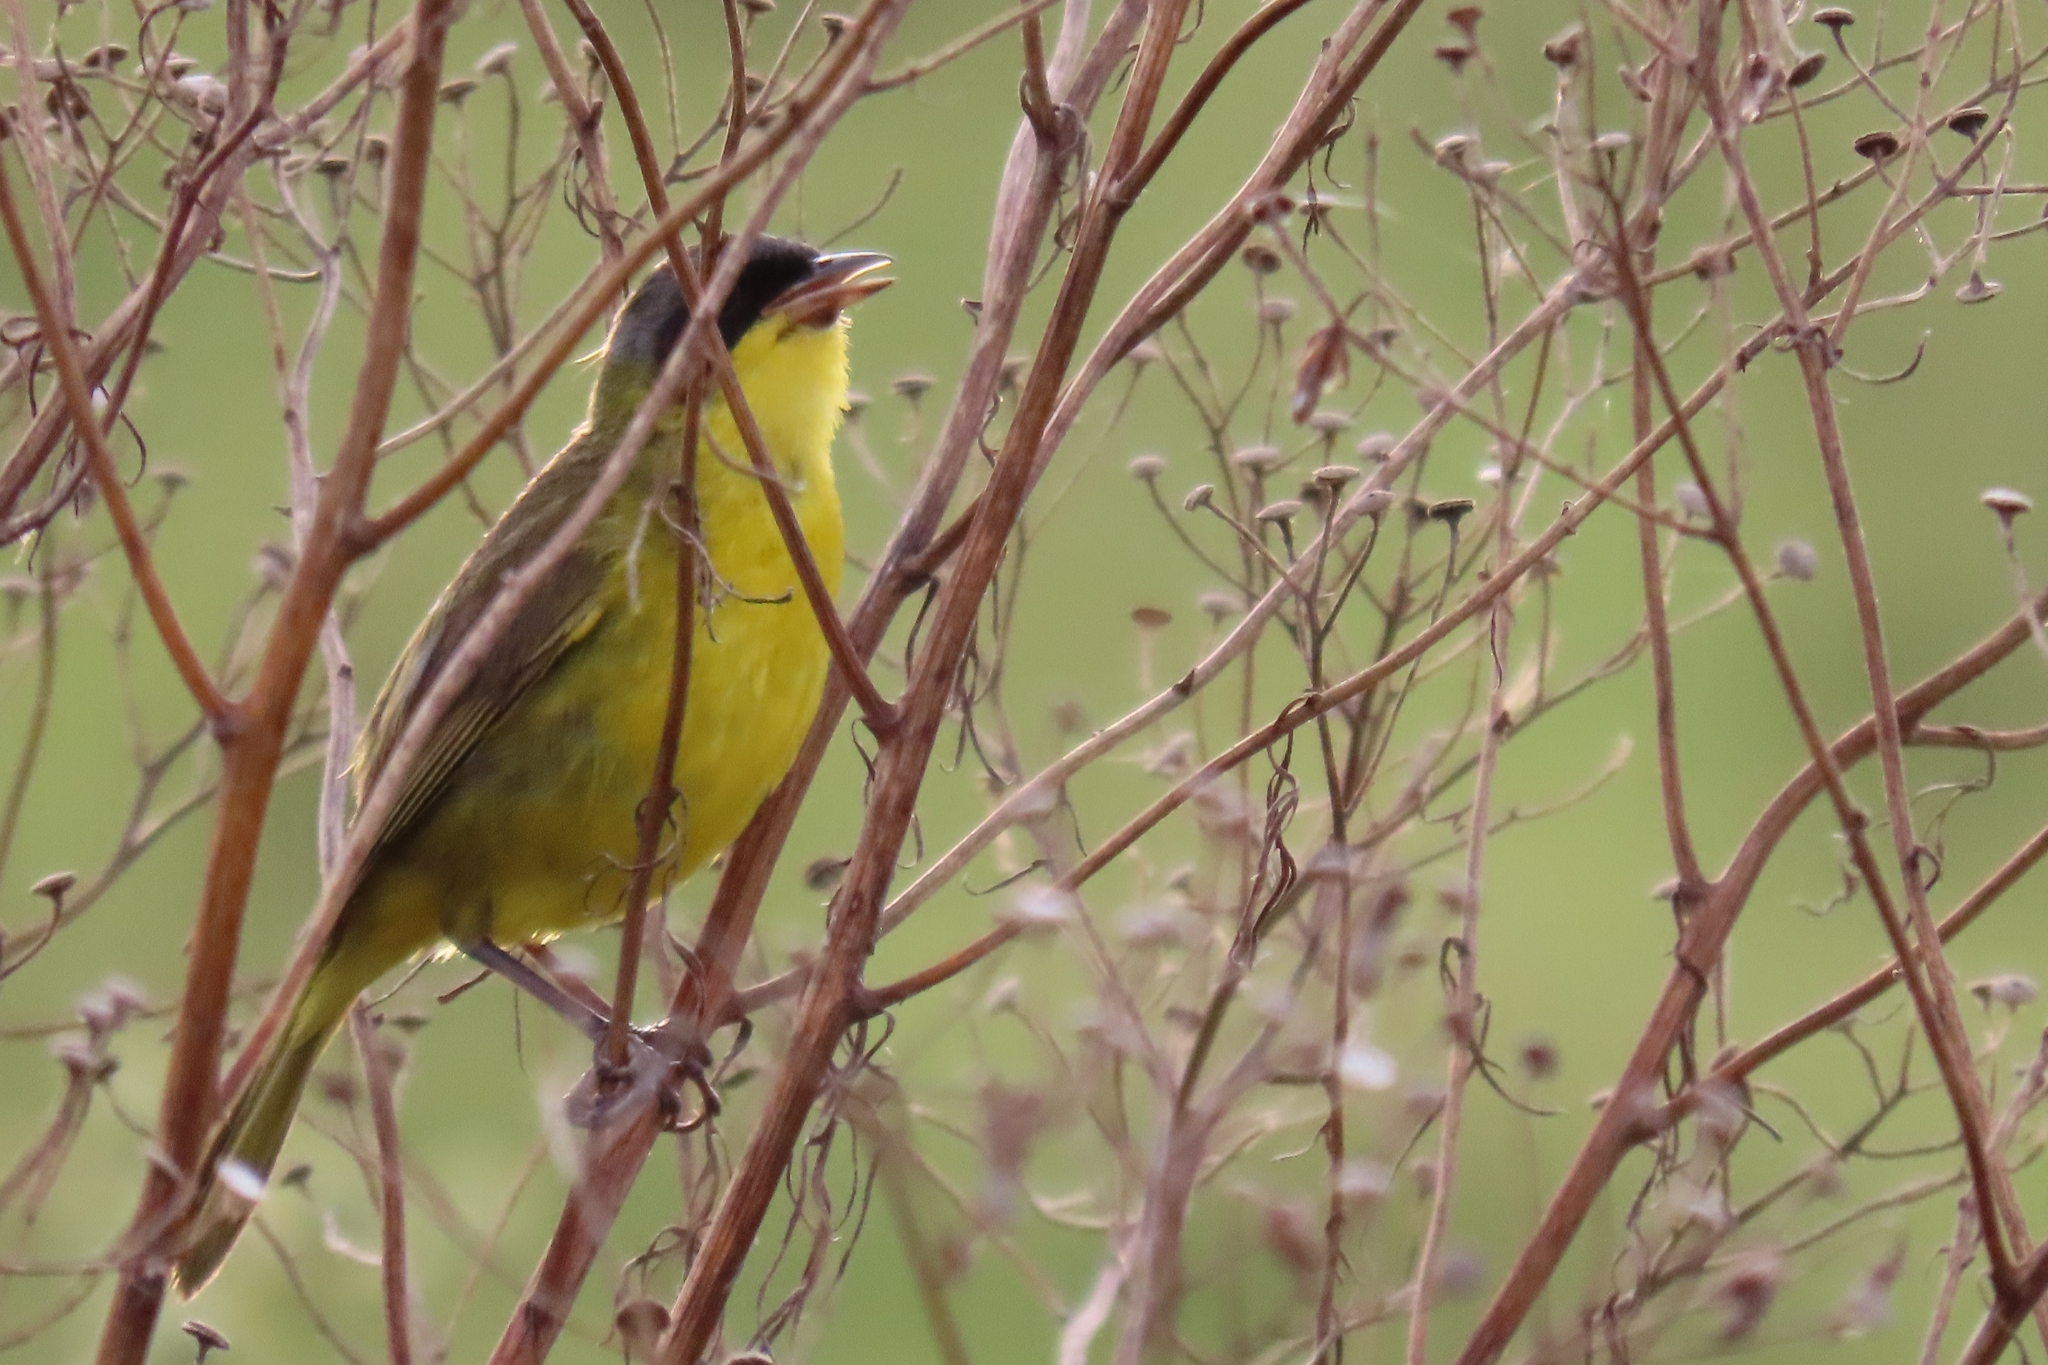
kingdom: Animalia
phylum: Chordata
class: Aves
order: Passeriformes
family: Parulidae
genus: Geothlypis
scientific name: Geothlypis velata
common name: Southern yellowthroat
